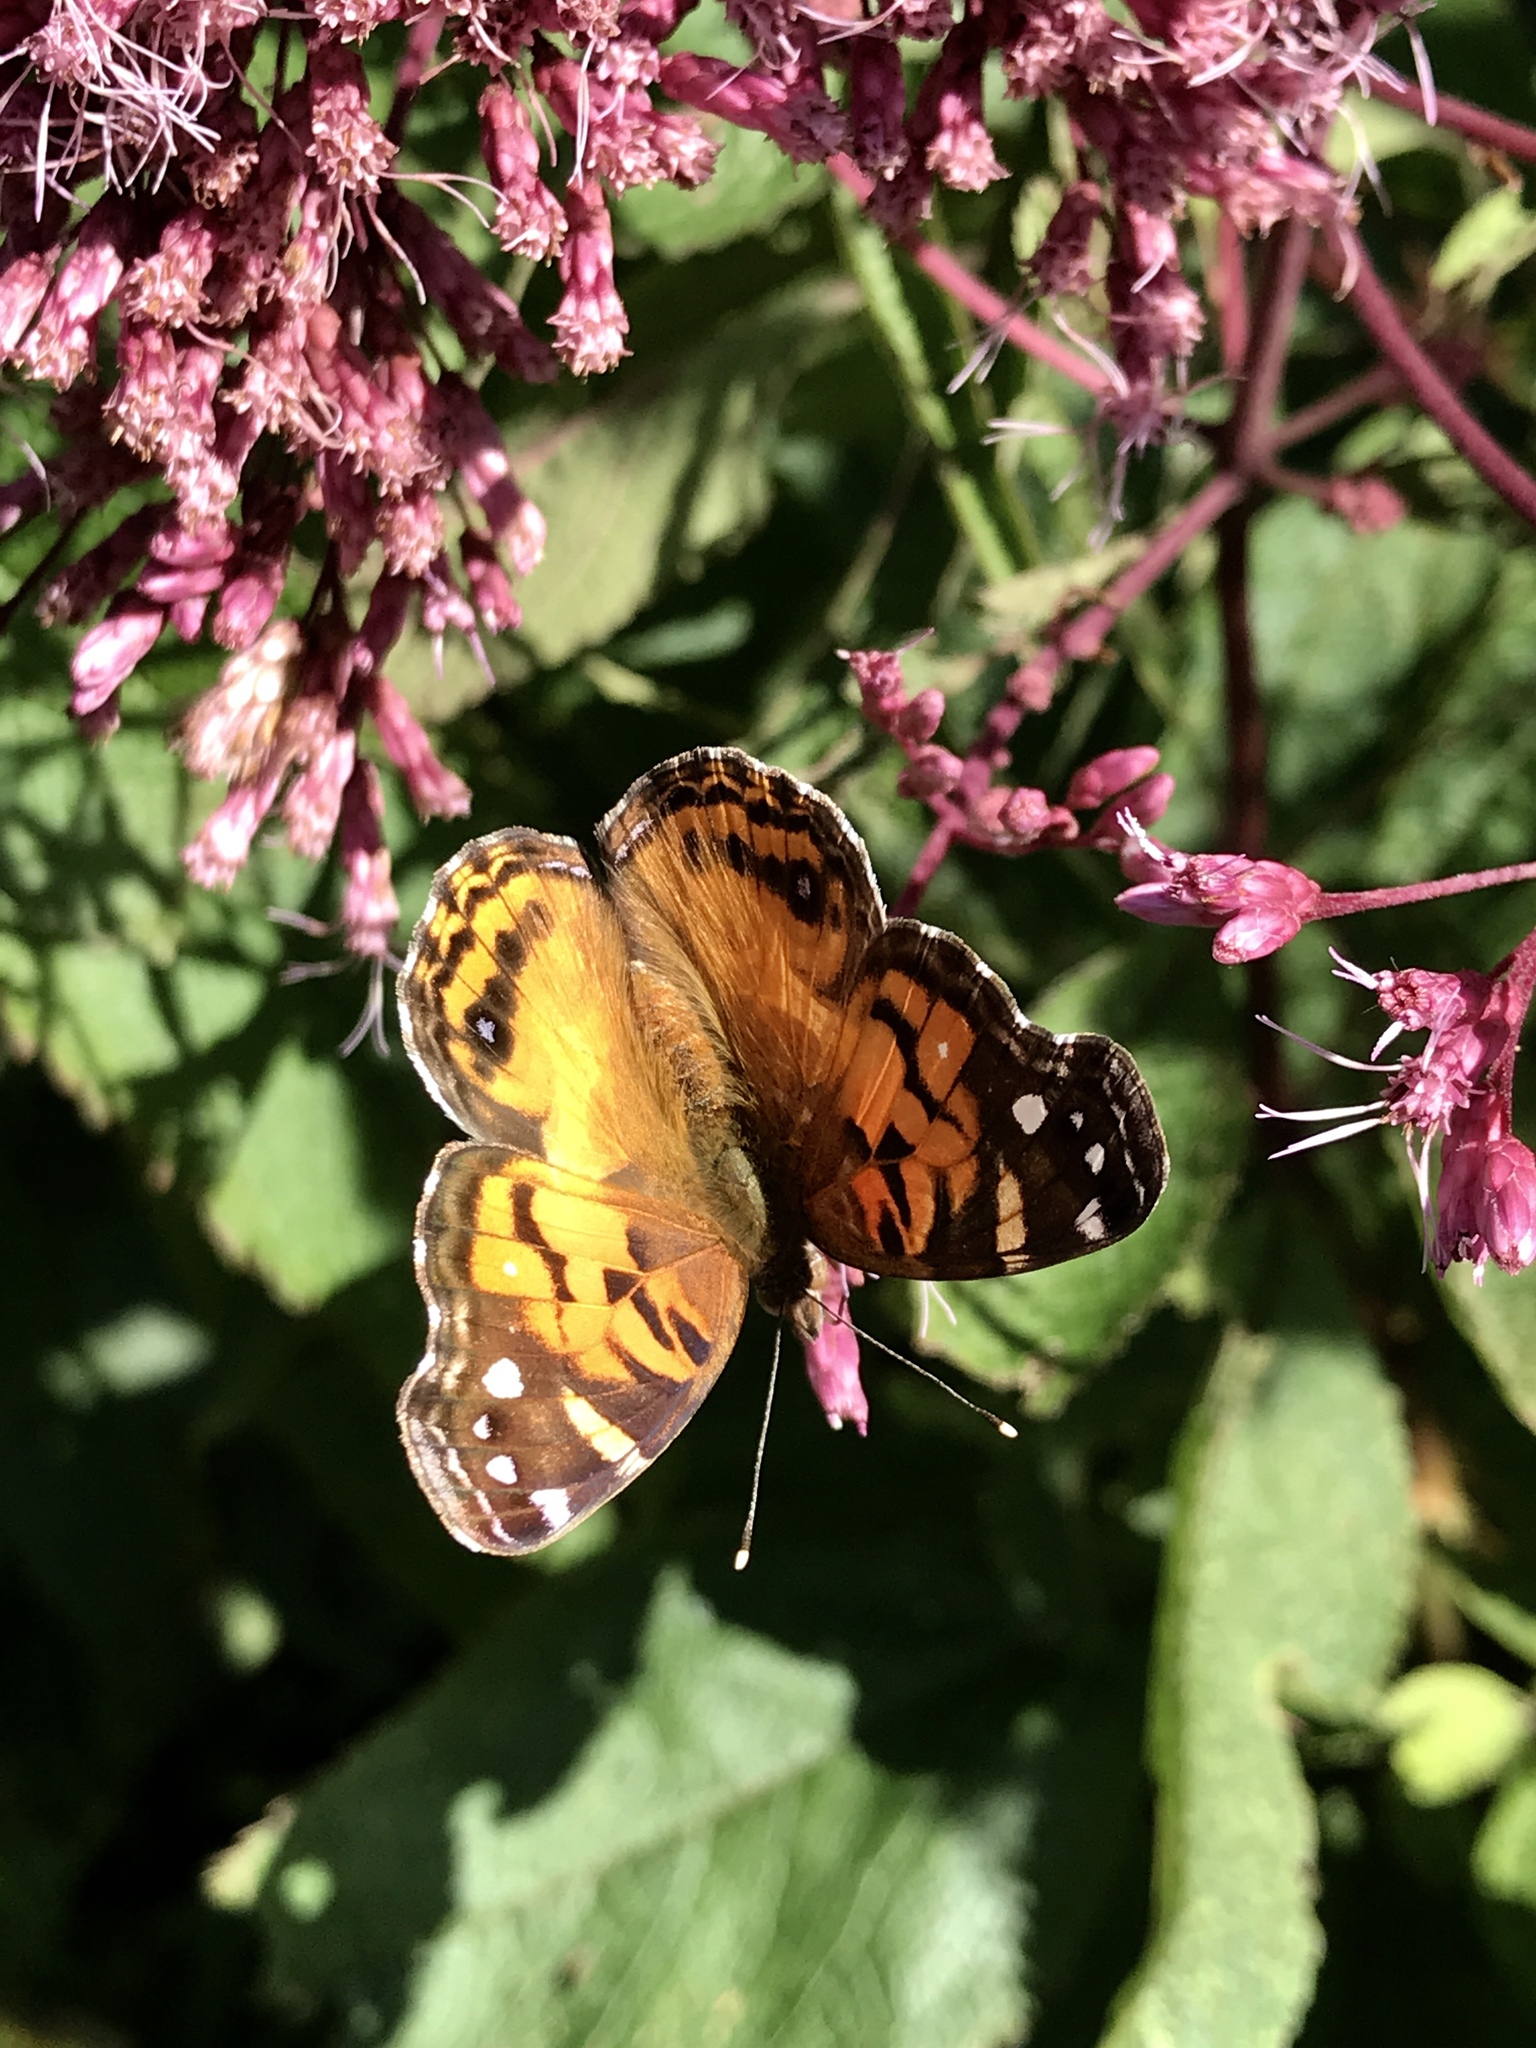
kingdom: Animalia
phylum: Arthropoda
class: Insecta
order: Lepidoptera
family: Nymphalidae
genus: Vanessa
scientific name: Vanessa virginiensis
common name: American lady
